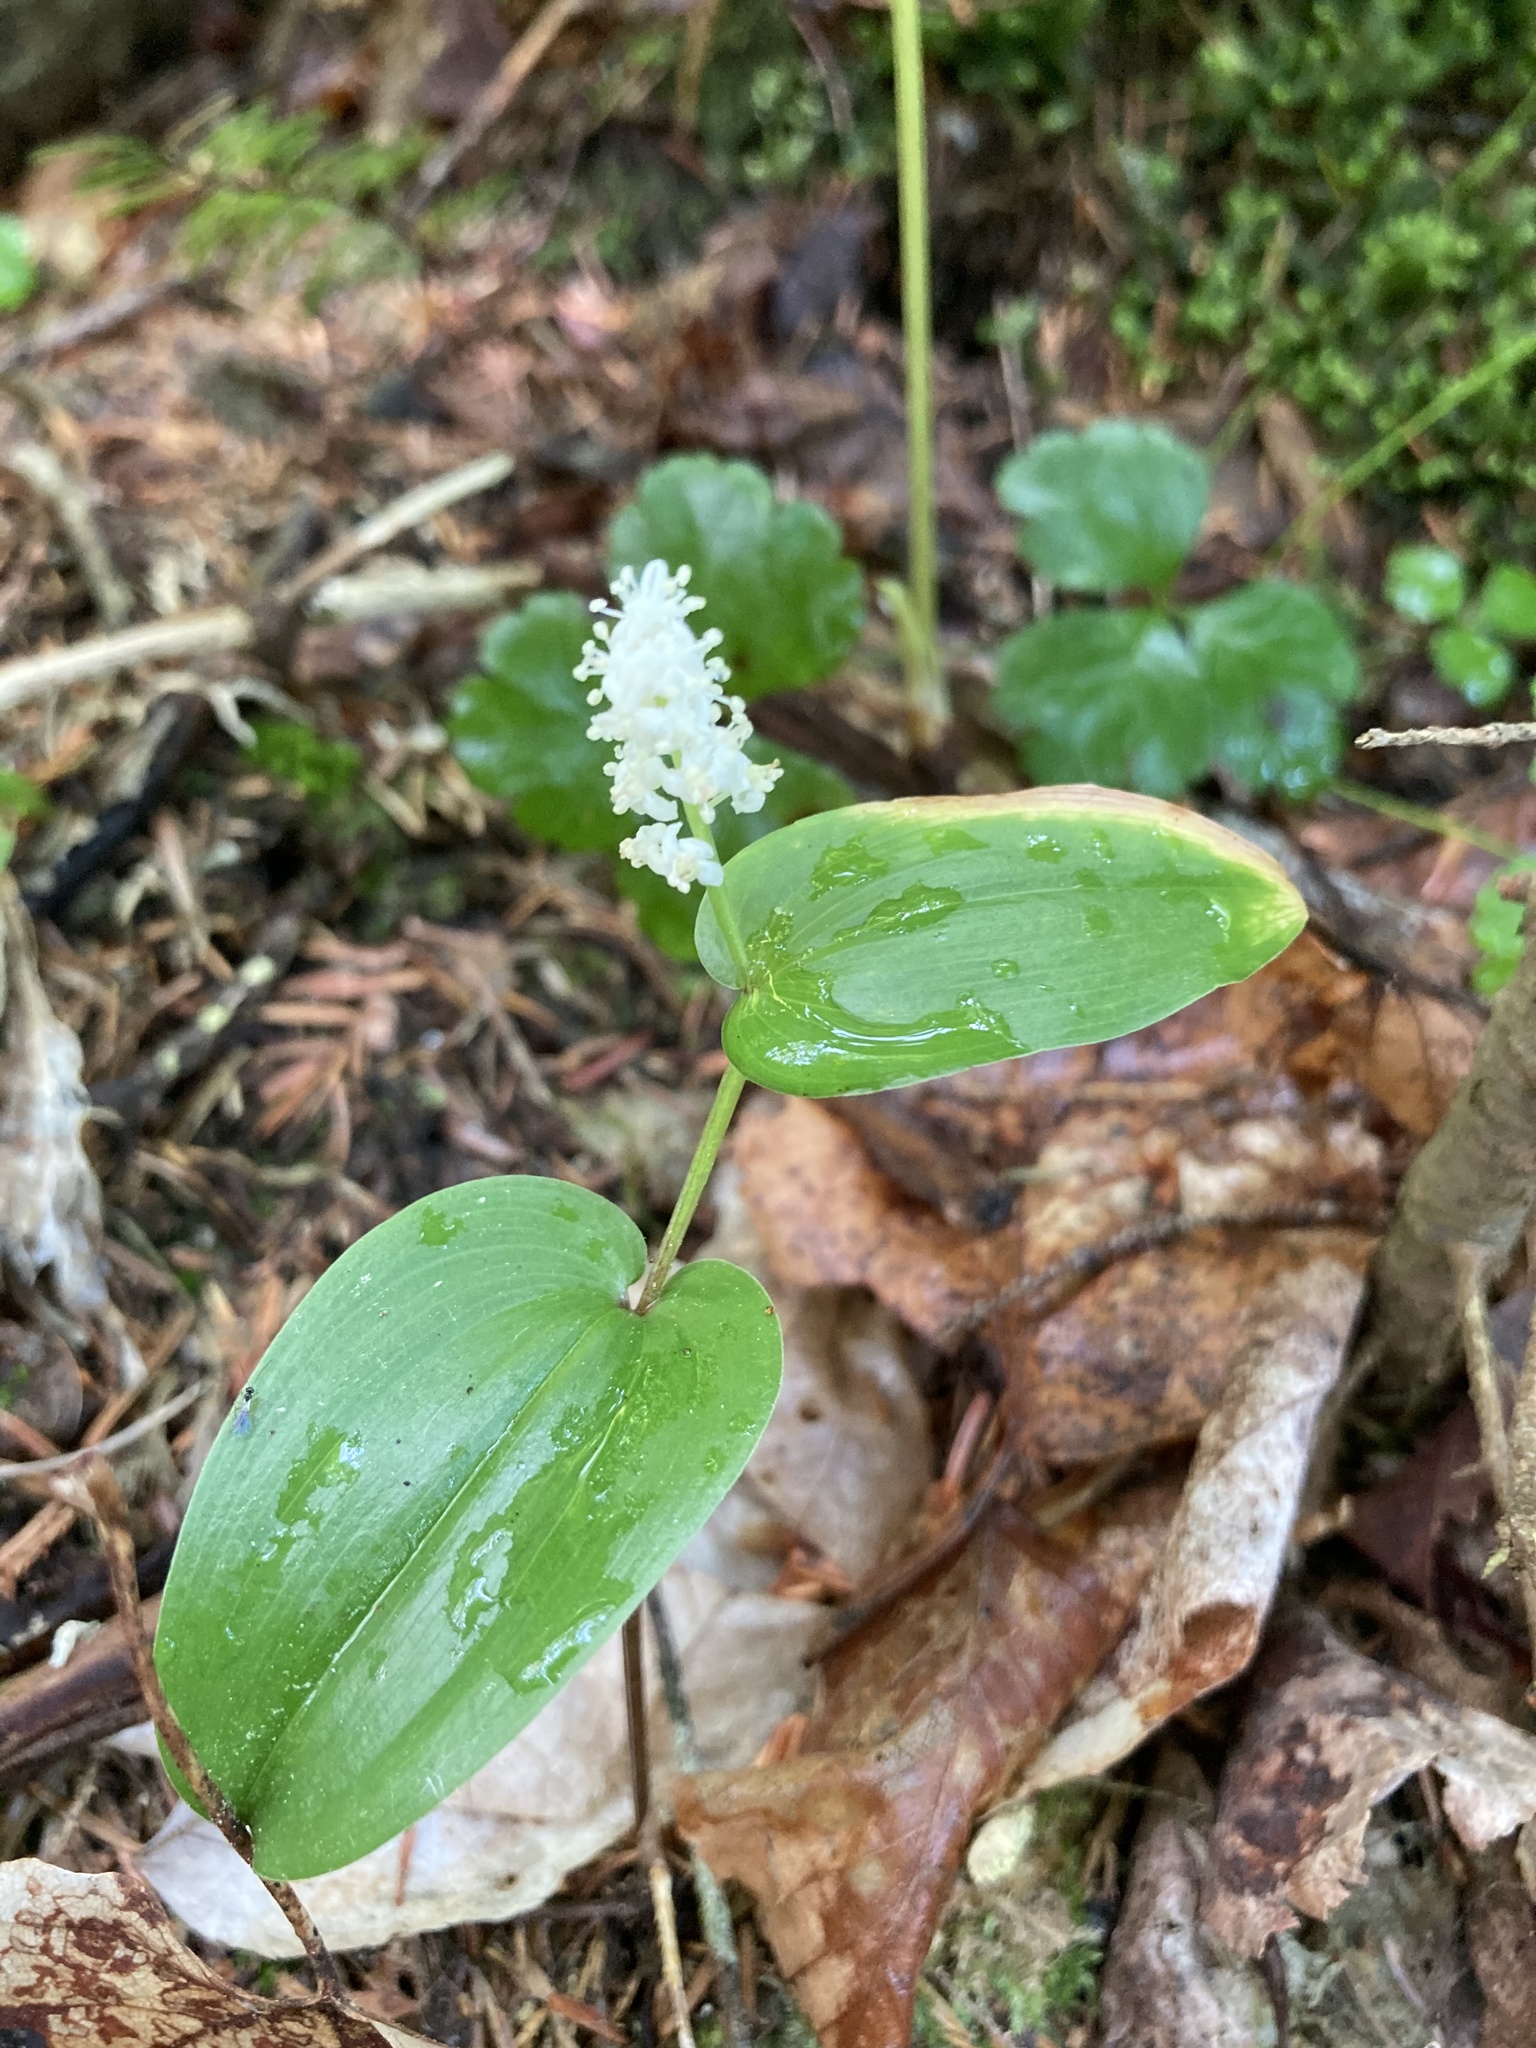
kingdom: Plantae
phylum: Tracheophyta
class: Liliopsida
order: Asparagales
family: Asparagaceae
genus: Maianthemum
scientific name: Maianthemum canadense
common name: False lily-of-the-valley
